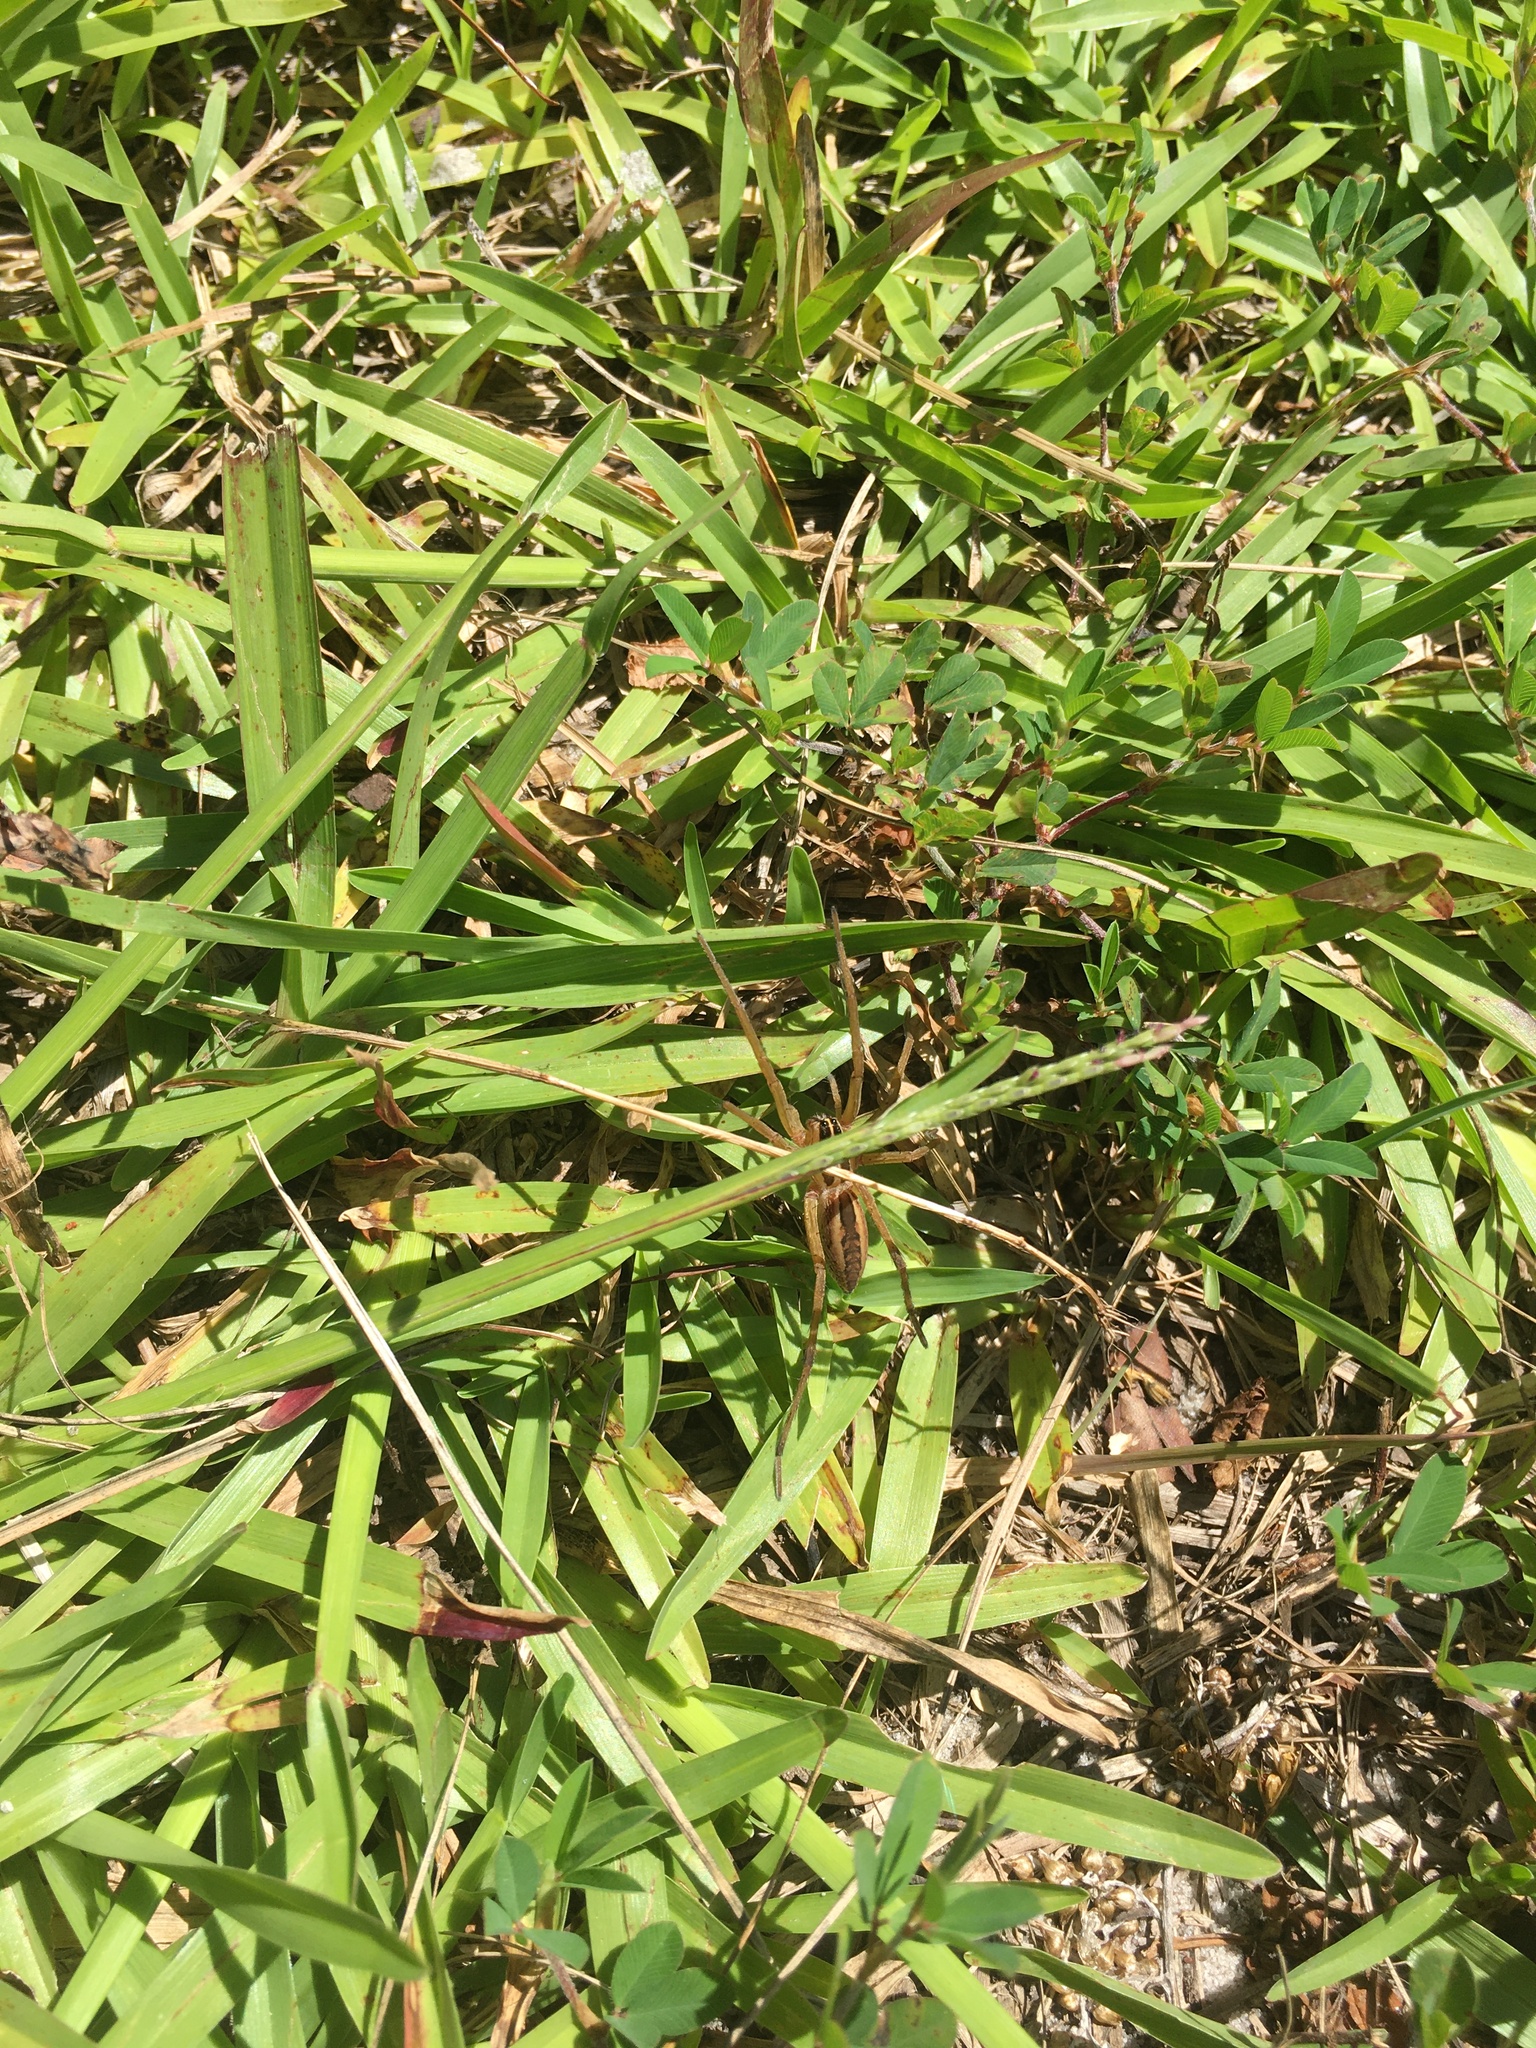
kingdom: Animalia
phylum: Arthropoda
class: Arachnida
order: Araneae
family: Lycosidae
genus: Rabidosa
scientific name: Rabidosa rabida
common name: Rabid wolf spider
